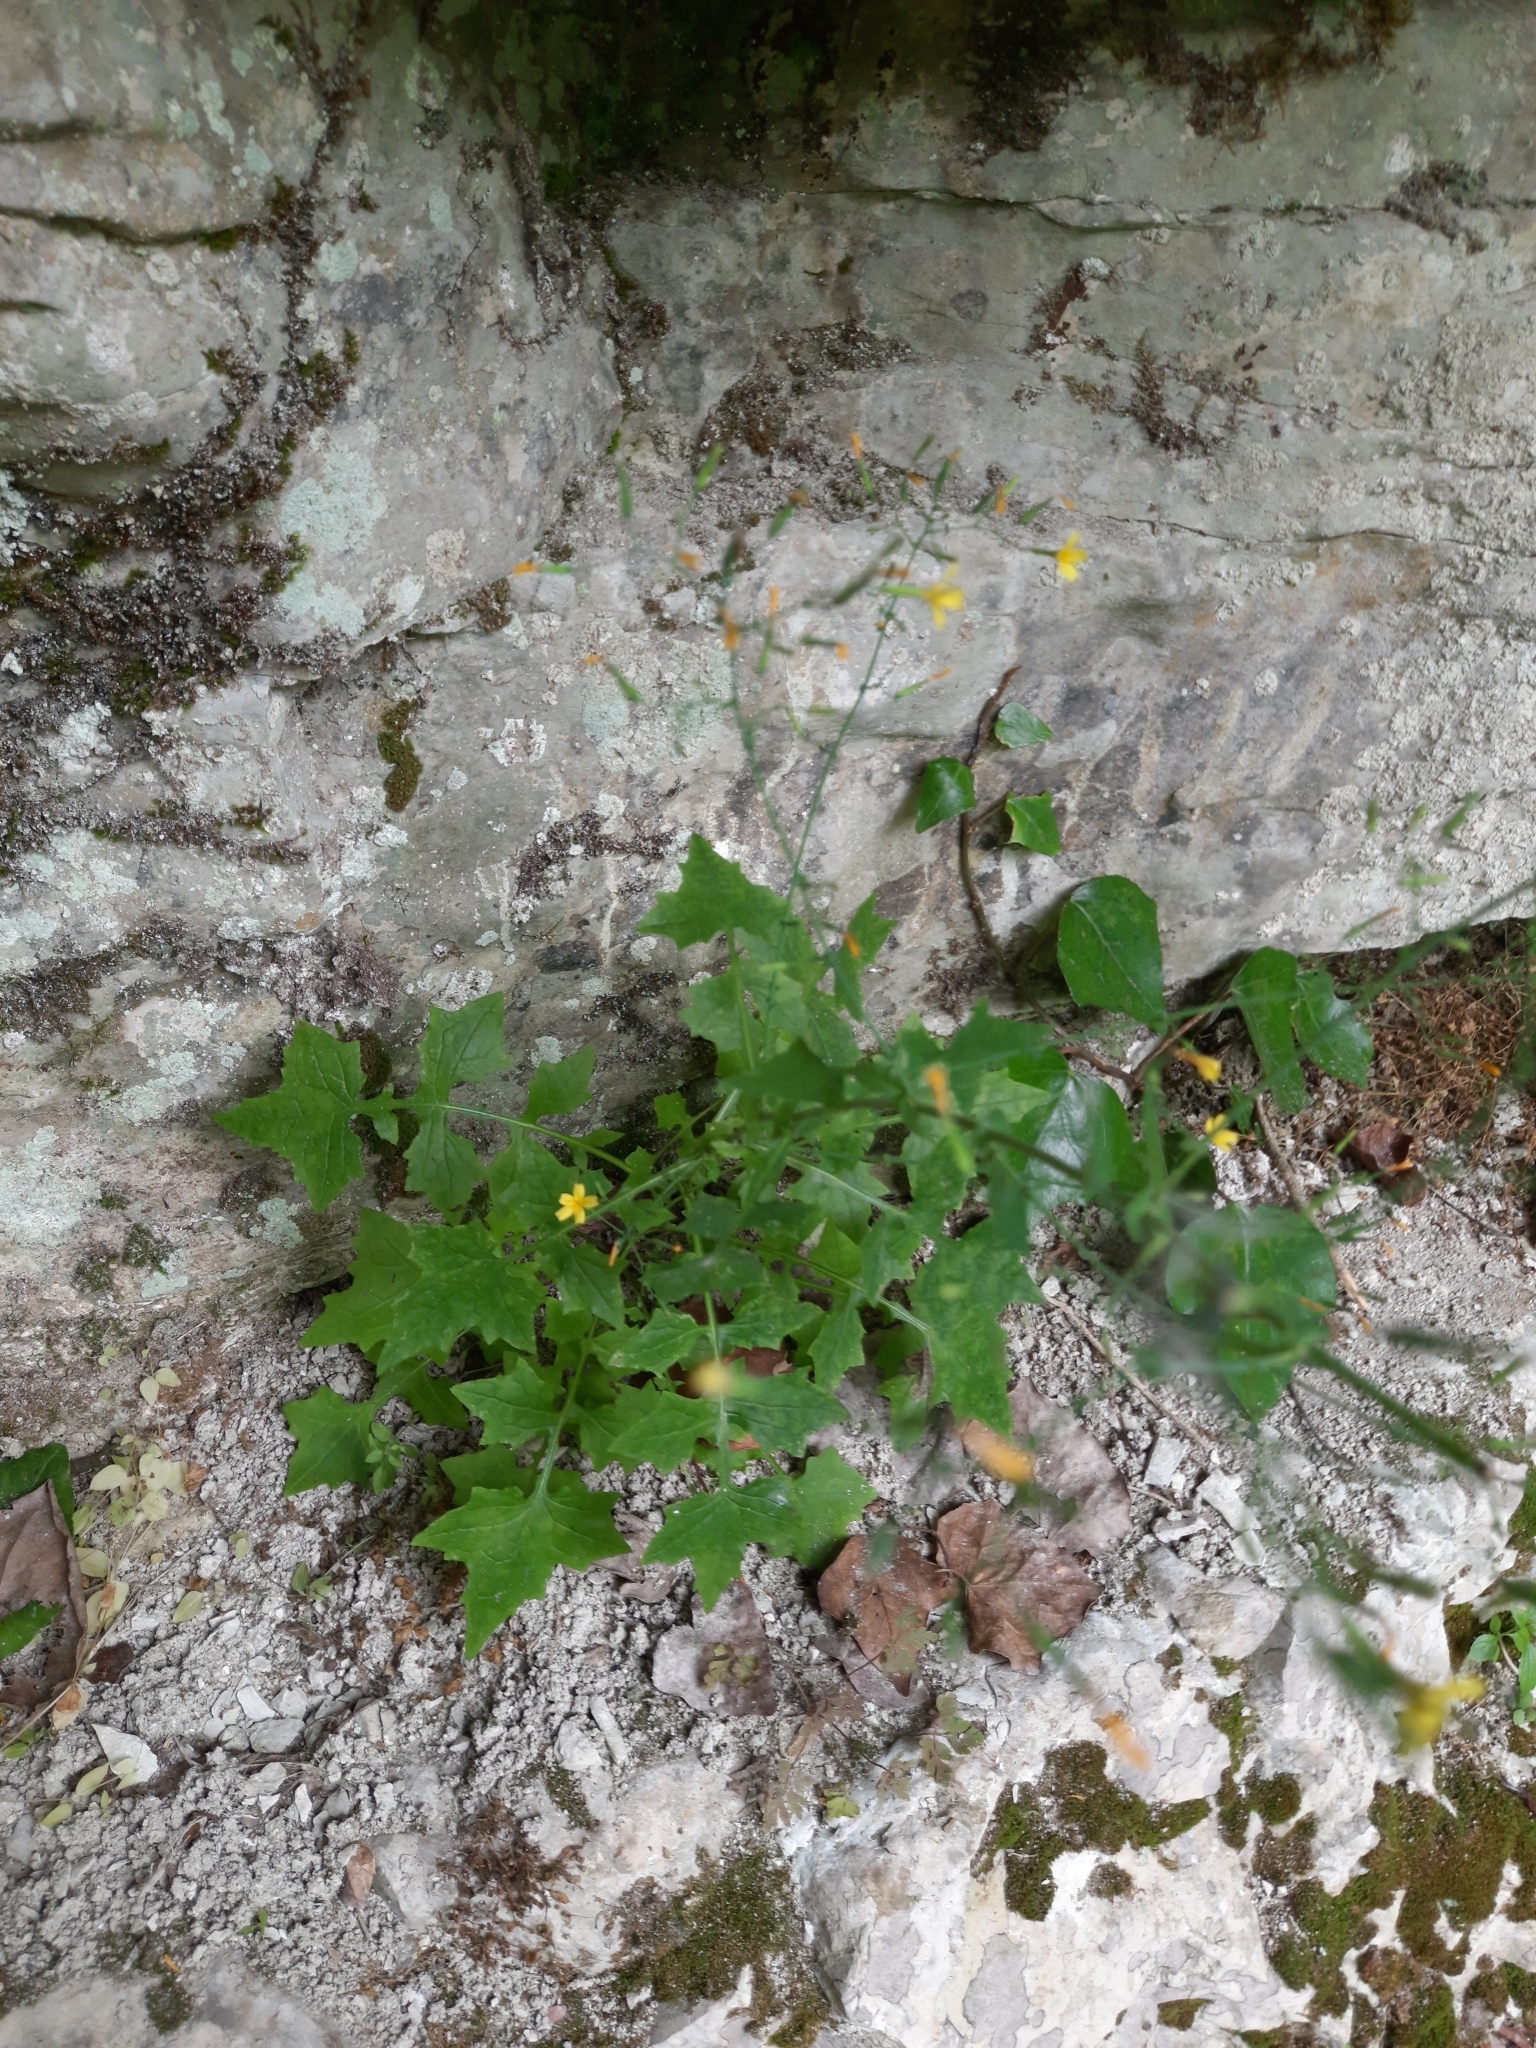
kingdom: Plantae
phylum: Tracheophyta
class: Magnoliopsida
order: Asterales
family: Asteraceae
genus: Mycelis
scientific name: Mycelis muralis
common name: Wall lettuce
